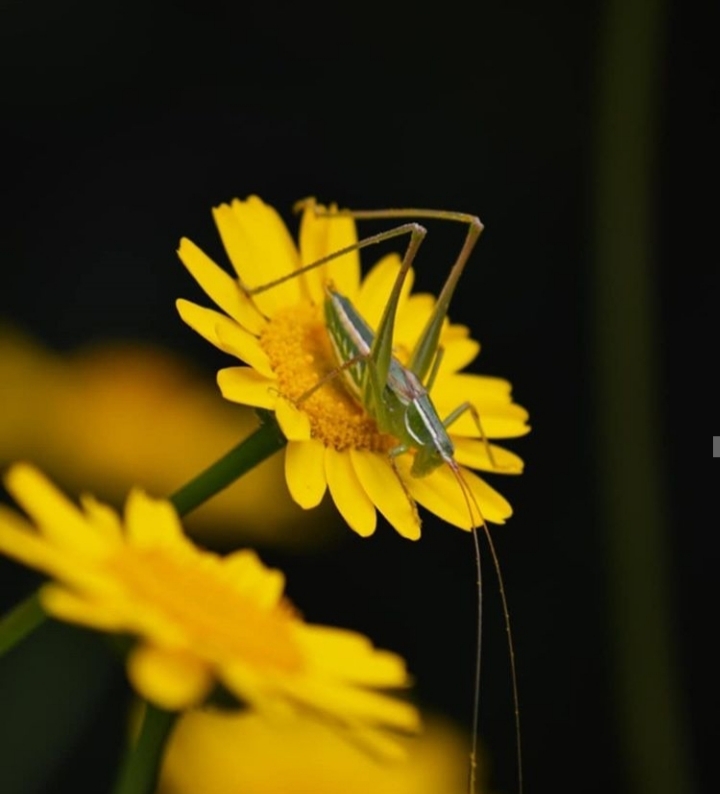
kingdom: Animalia
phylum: Arthropoda
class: Insecta
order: Orthoptera
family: Tettigoniidae
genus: Cohnia
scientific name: Cohnia transfuga
